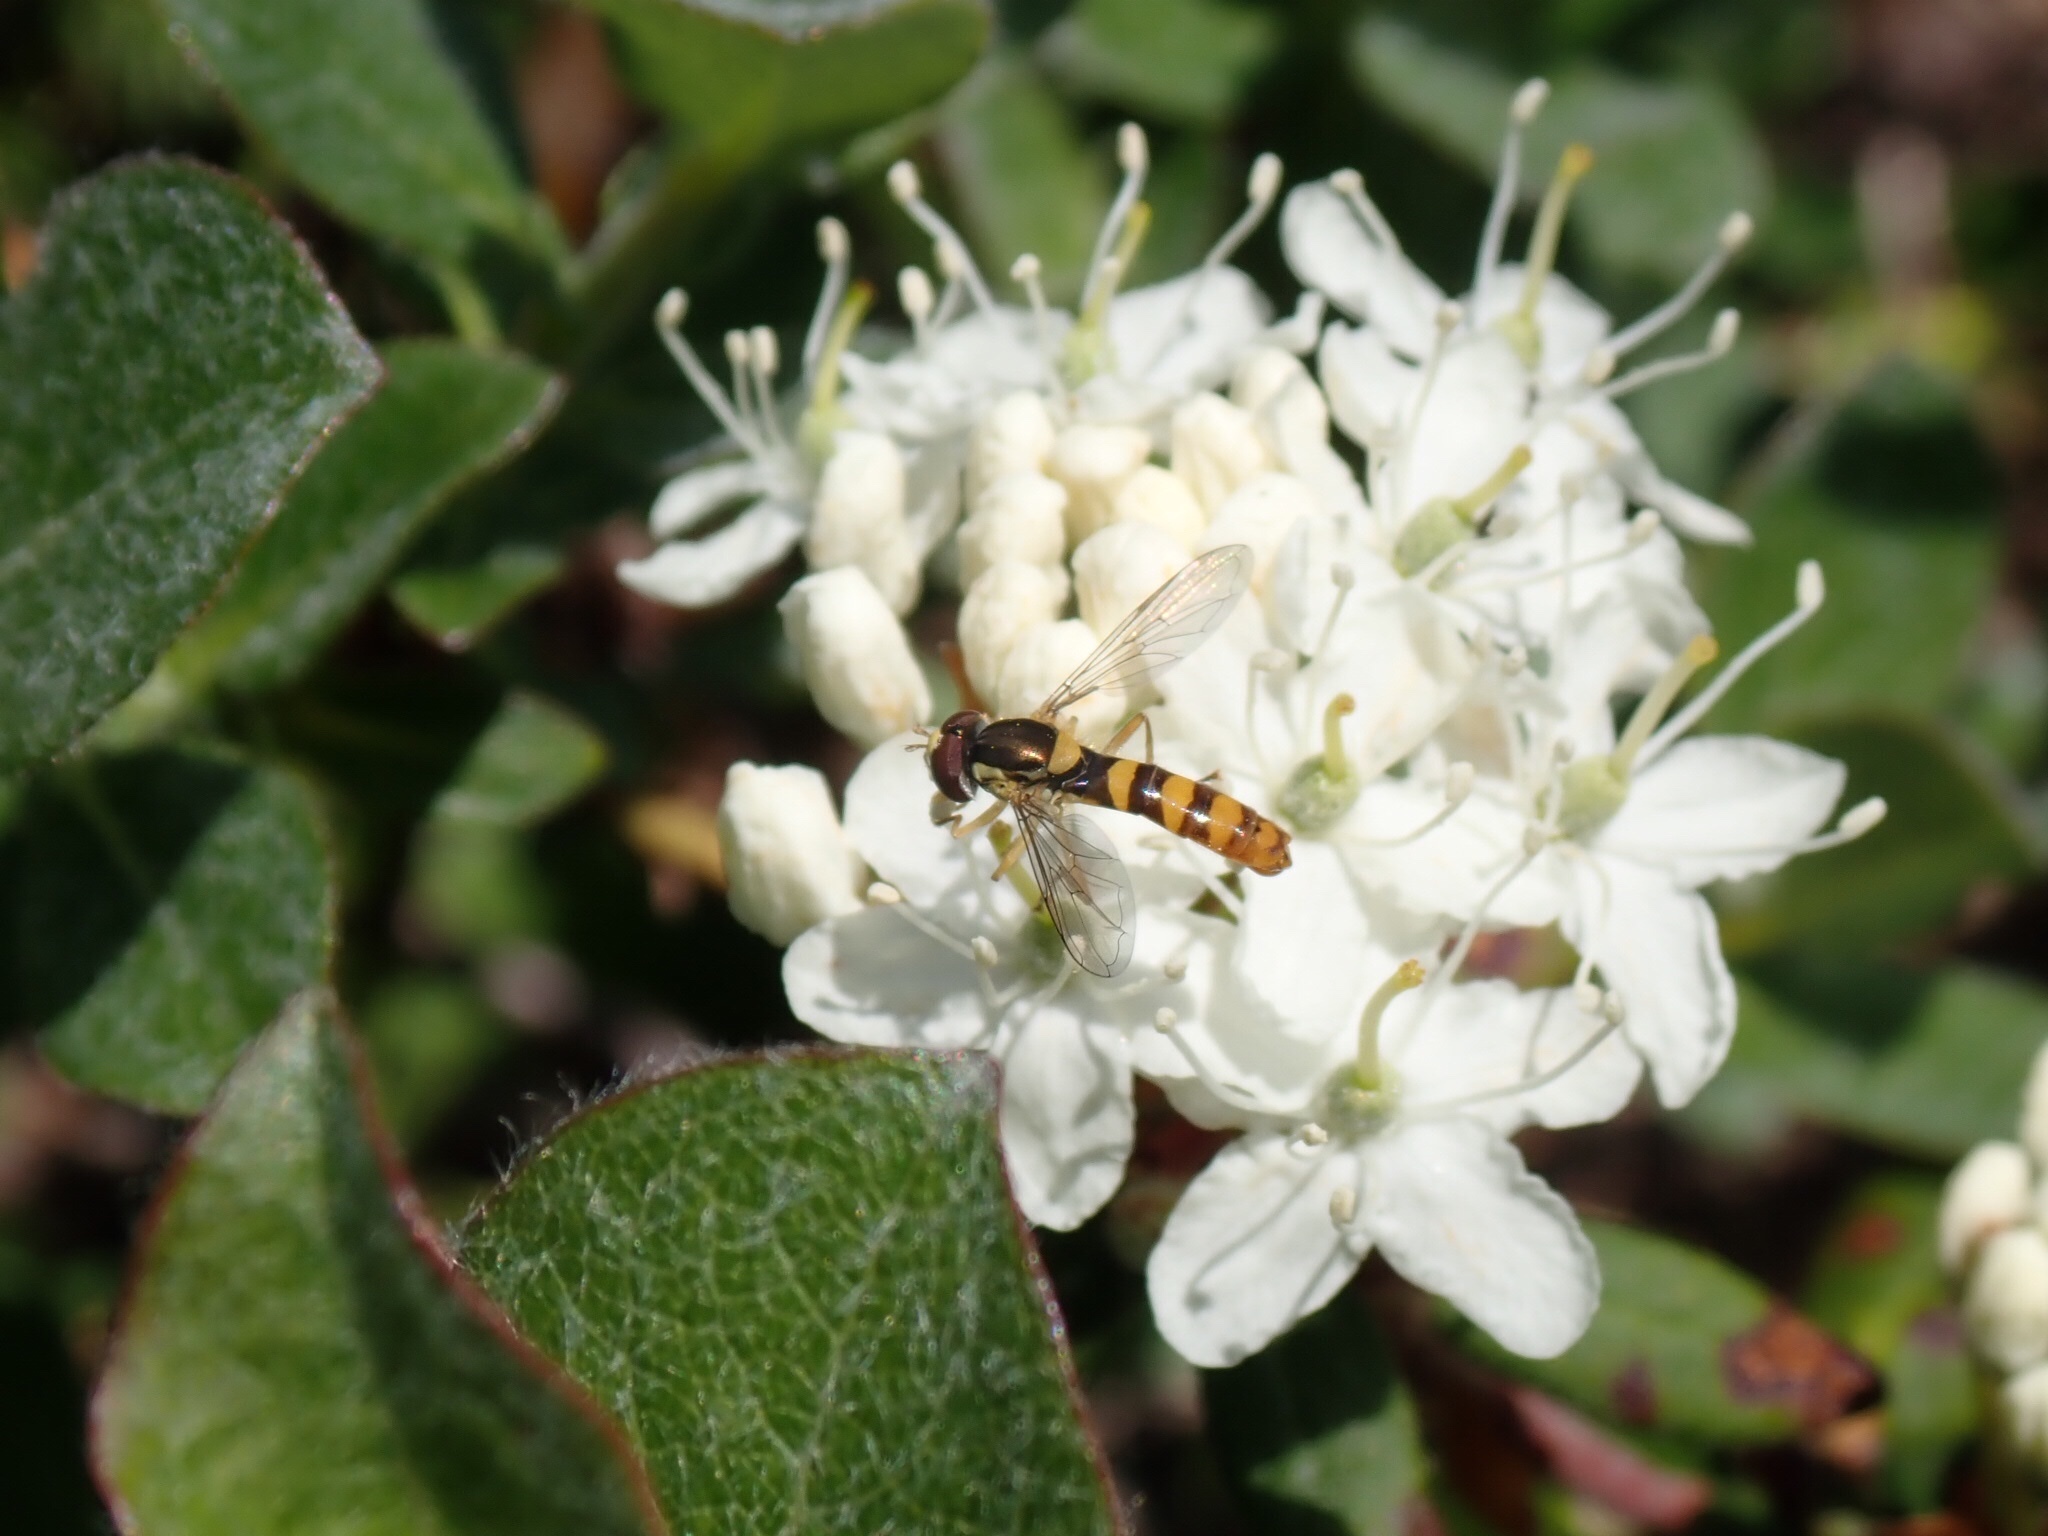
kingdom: Animalia
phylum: Arthropoda
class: Insecta
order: Diptera
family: Syrphidae
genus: Sphaerophoria
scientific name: Sphaerophoria
